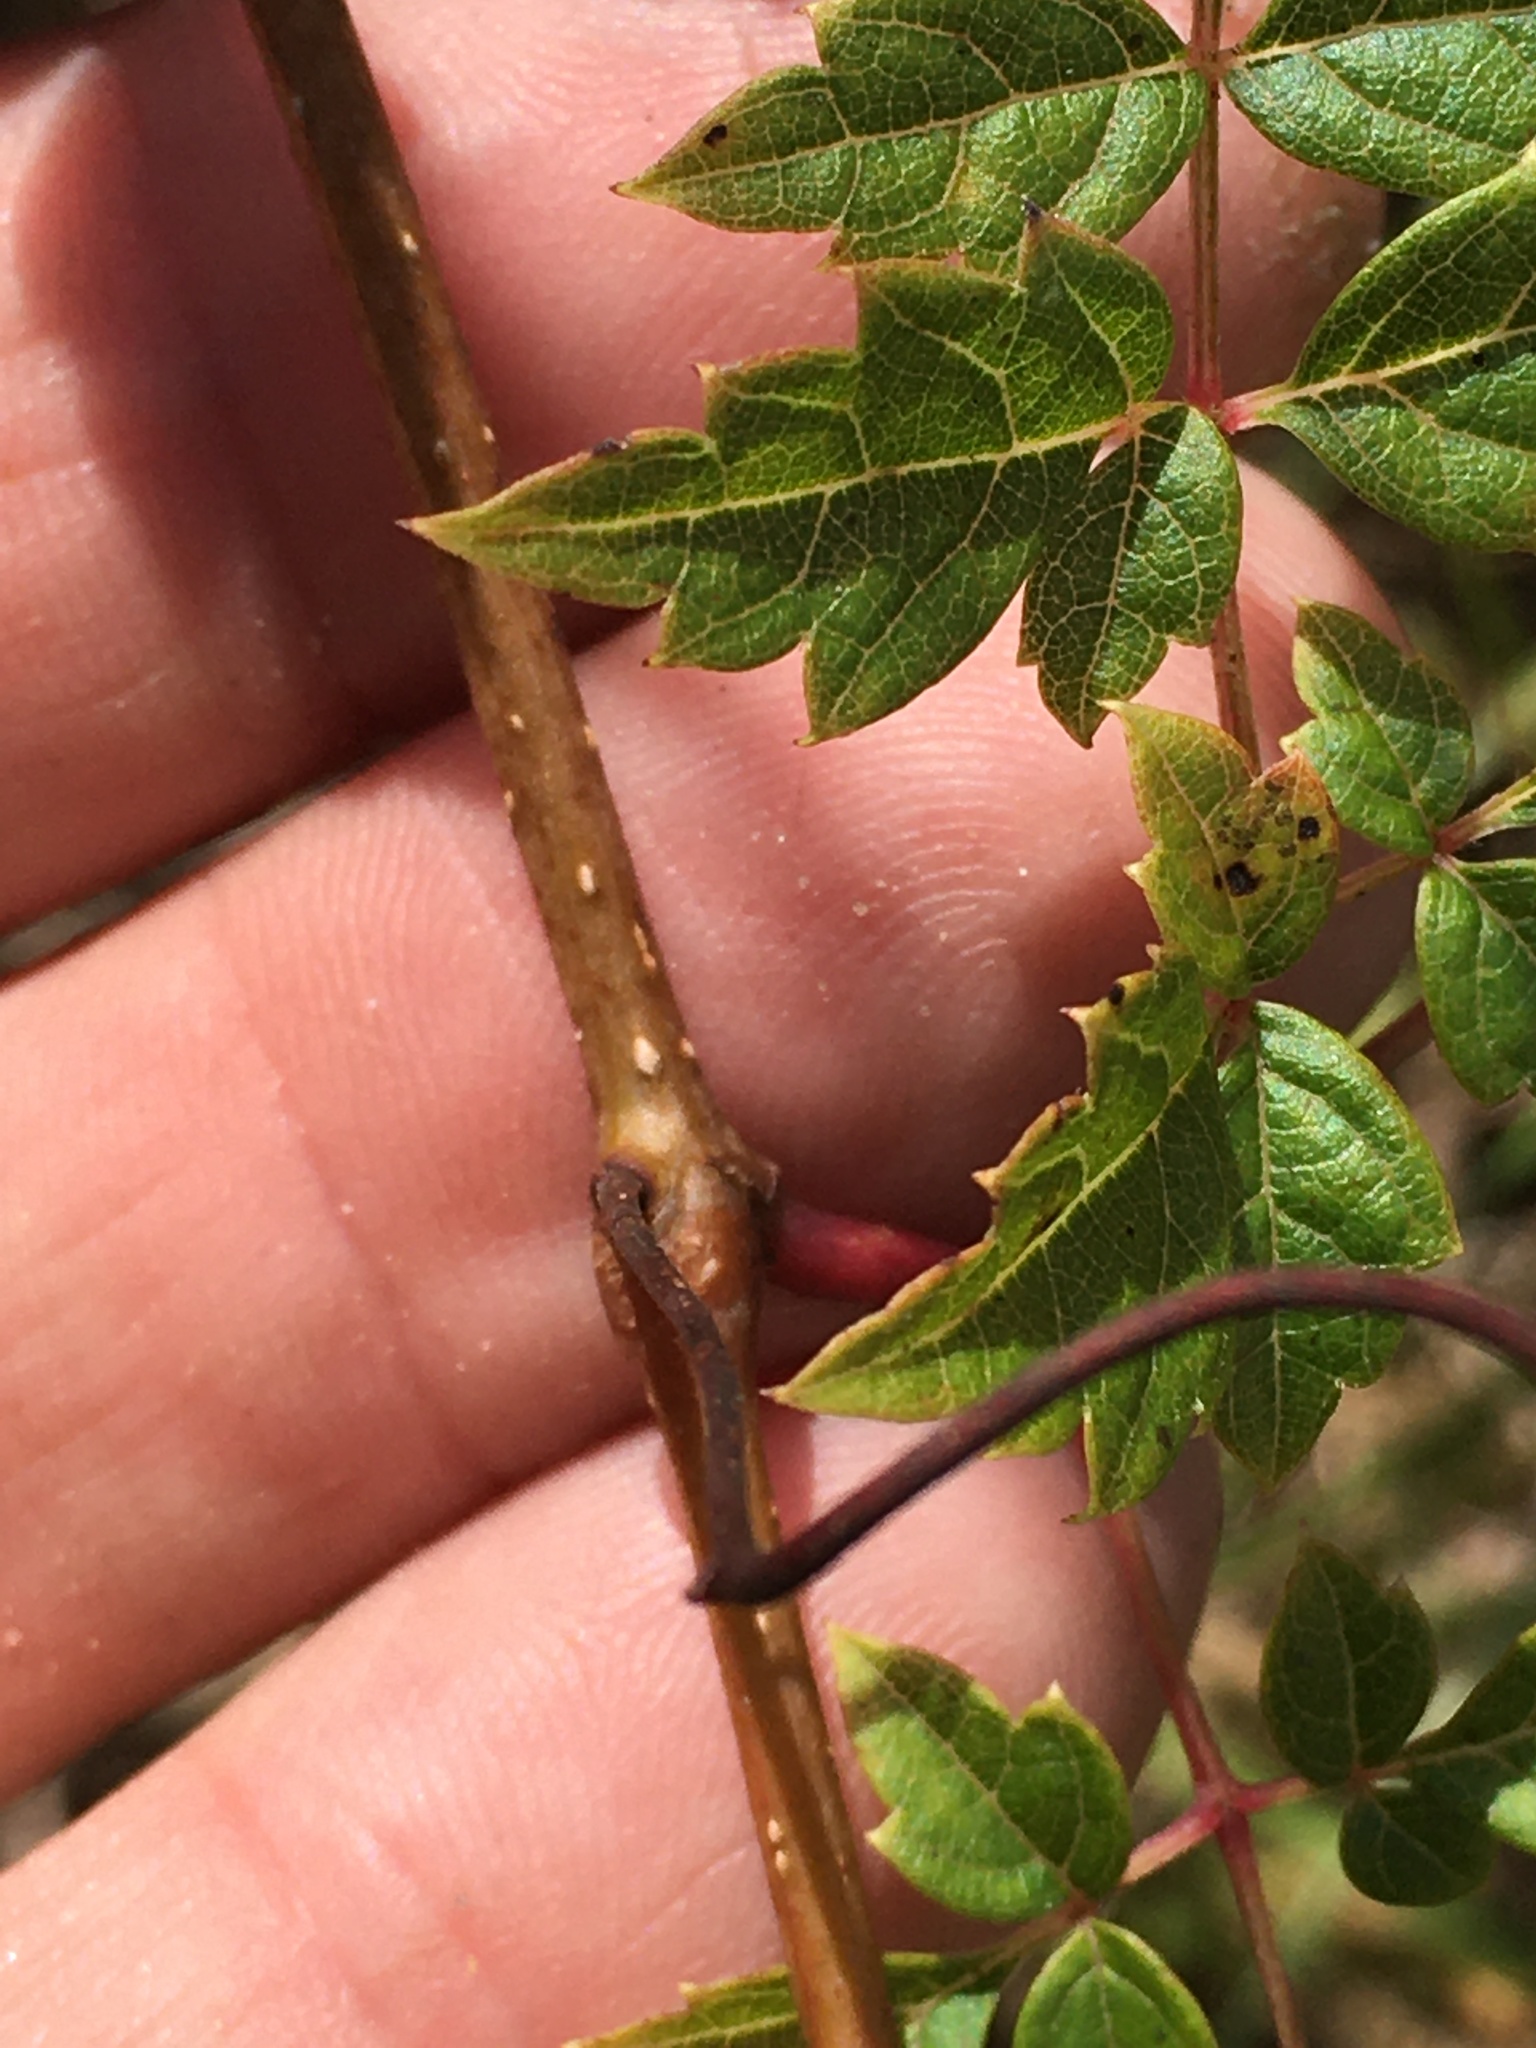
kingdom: Plantae
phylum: Tracheophyta
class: Magnoliopsida
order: Vitales
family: Vitaceae
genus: Nekemias
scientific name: Nekemias arborea
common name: Peppervine
